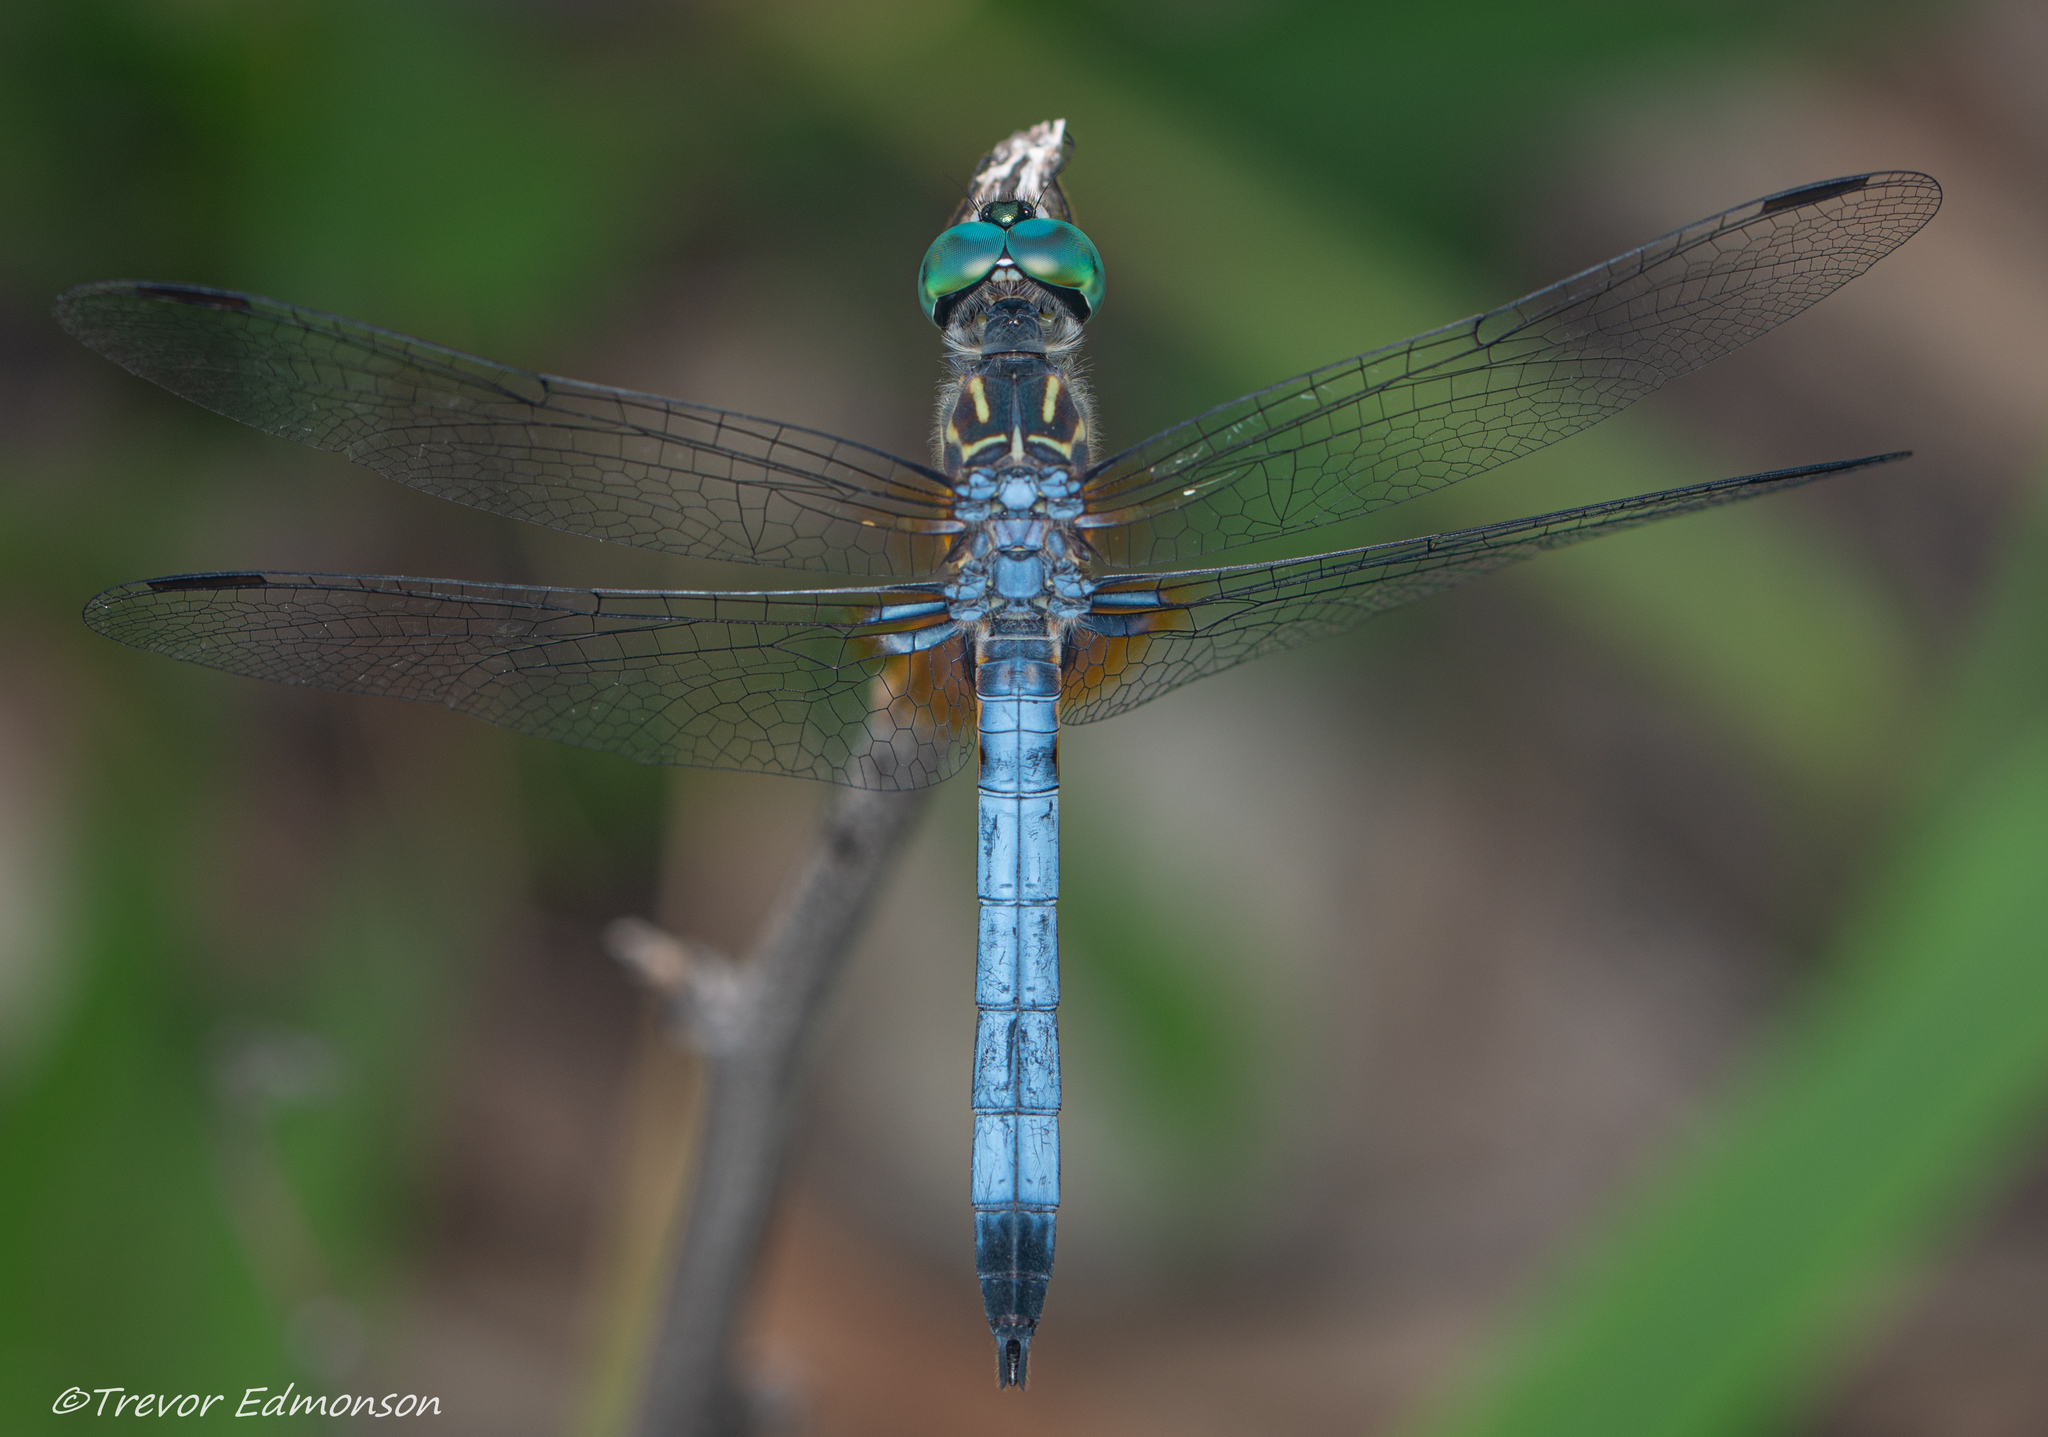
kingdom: Animalia
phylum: Arthropoda
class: Insecta
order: Odonata
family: Libellulidae
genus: Pachydiplax
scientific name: Pachydiplax longipennis
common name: Blue dasher
